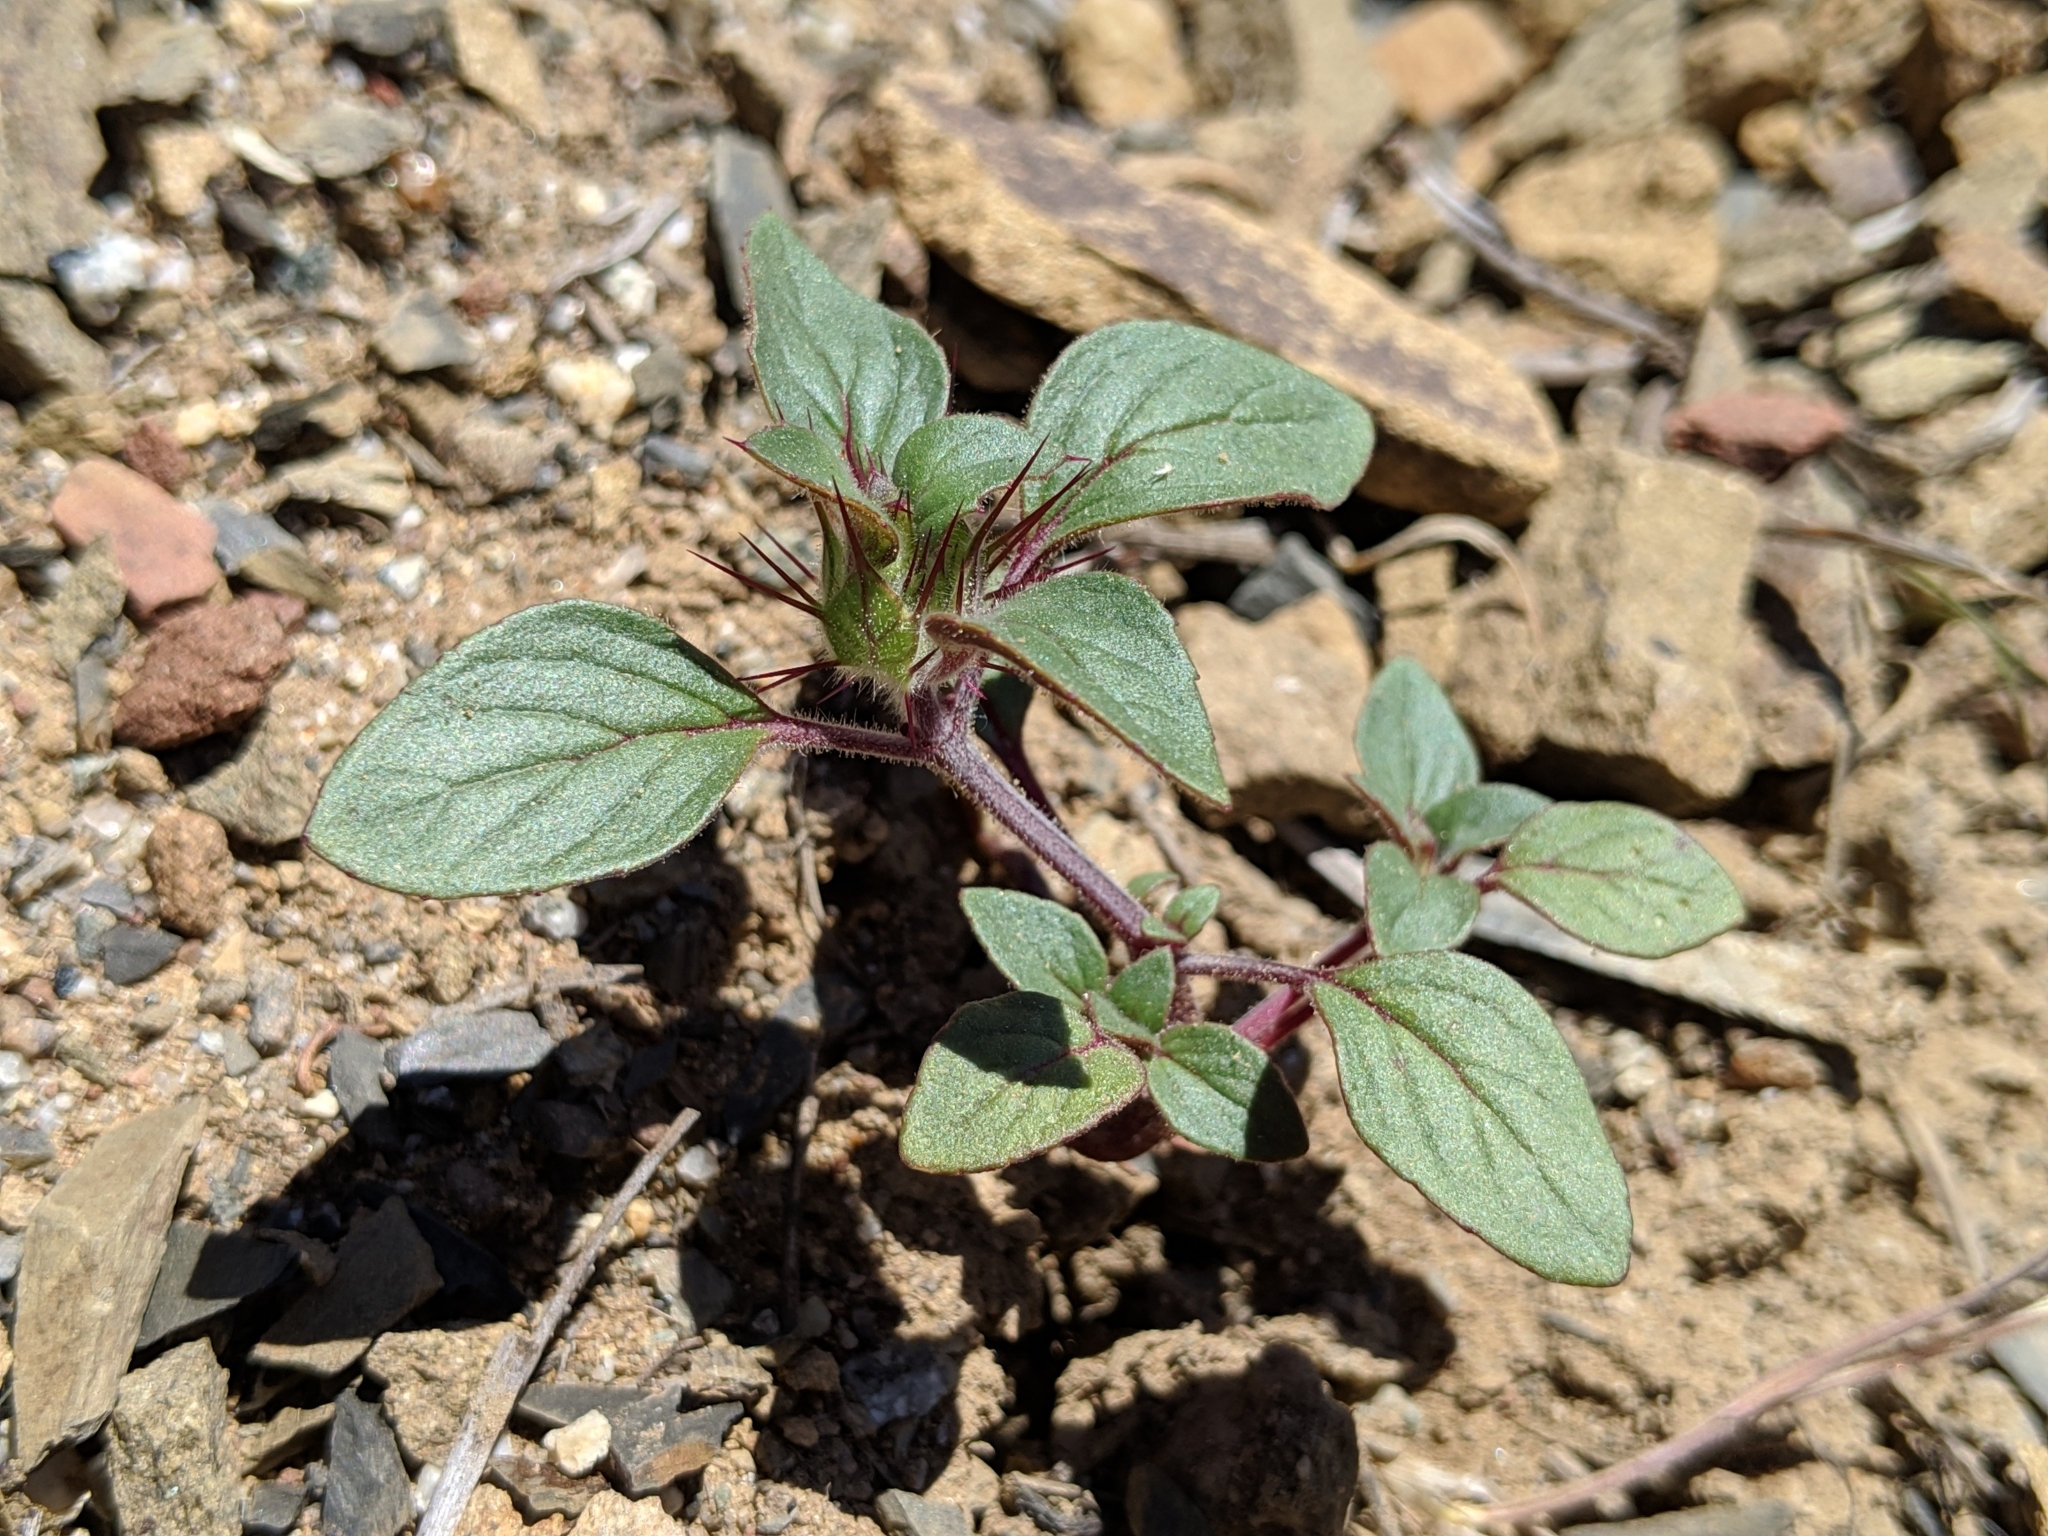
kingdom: Plantae
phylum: Tracheophyta
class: Magnoliopsida
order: Lamiales
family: Lamiaceae
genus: Acanthomintha
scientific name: Acanthomintha lanceolata
